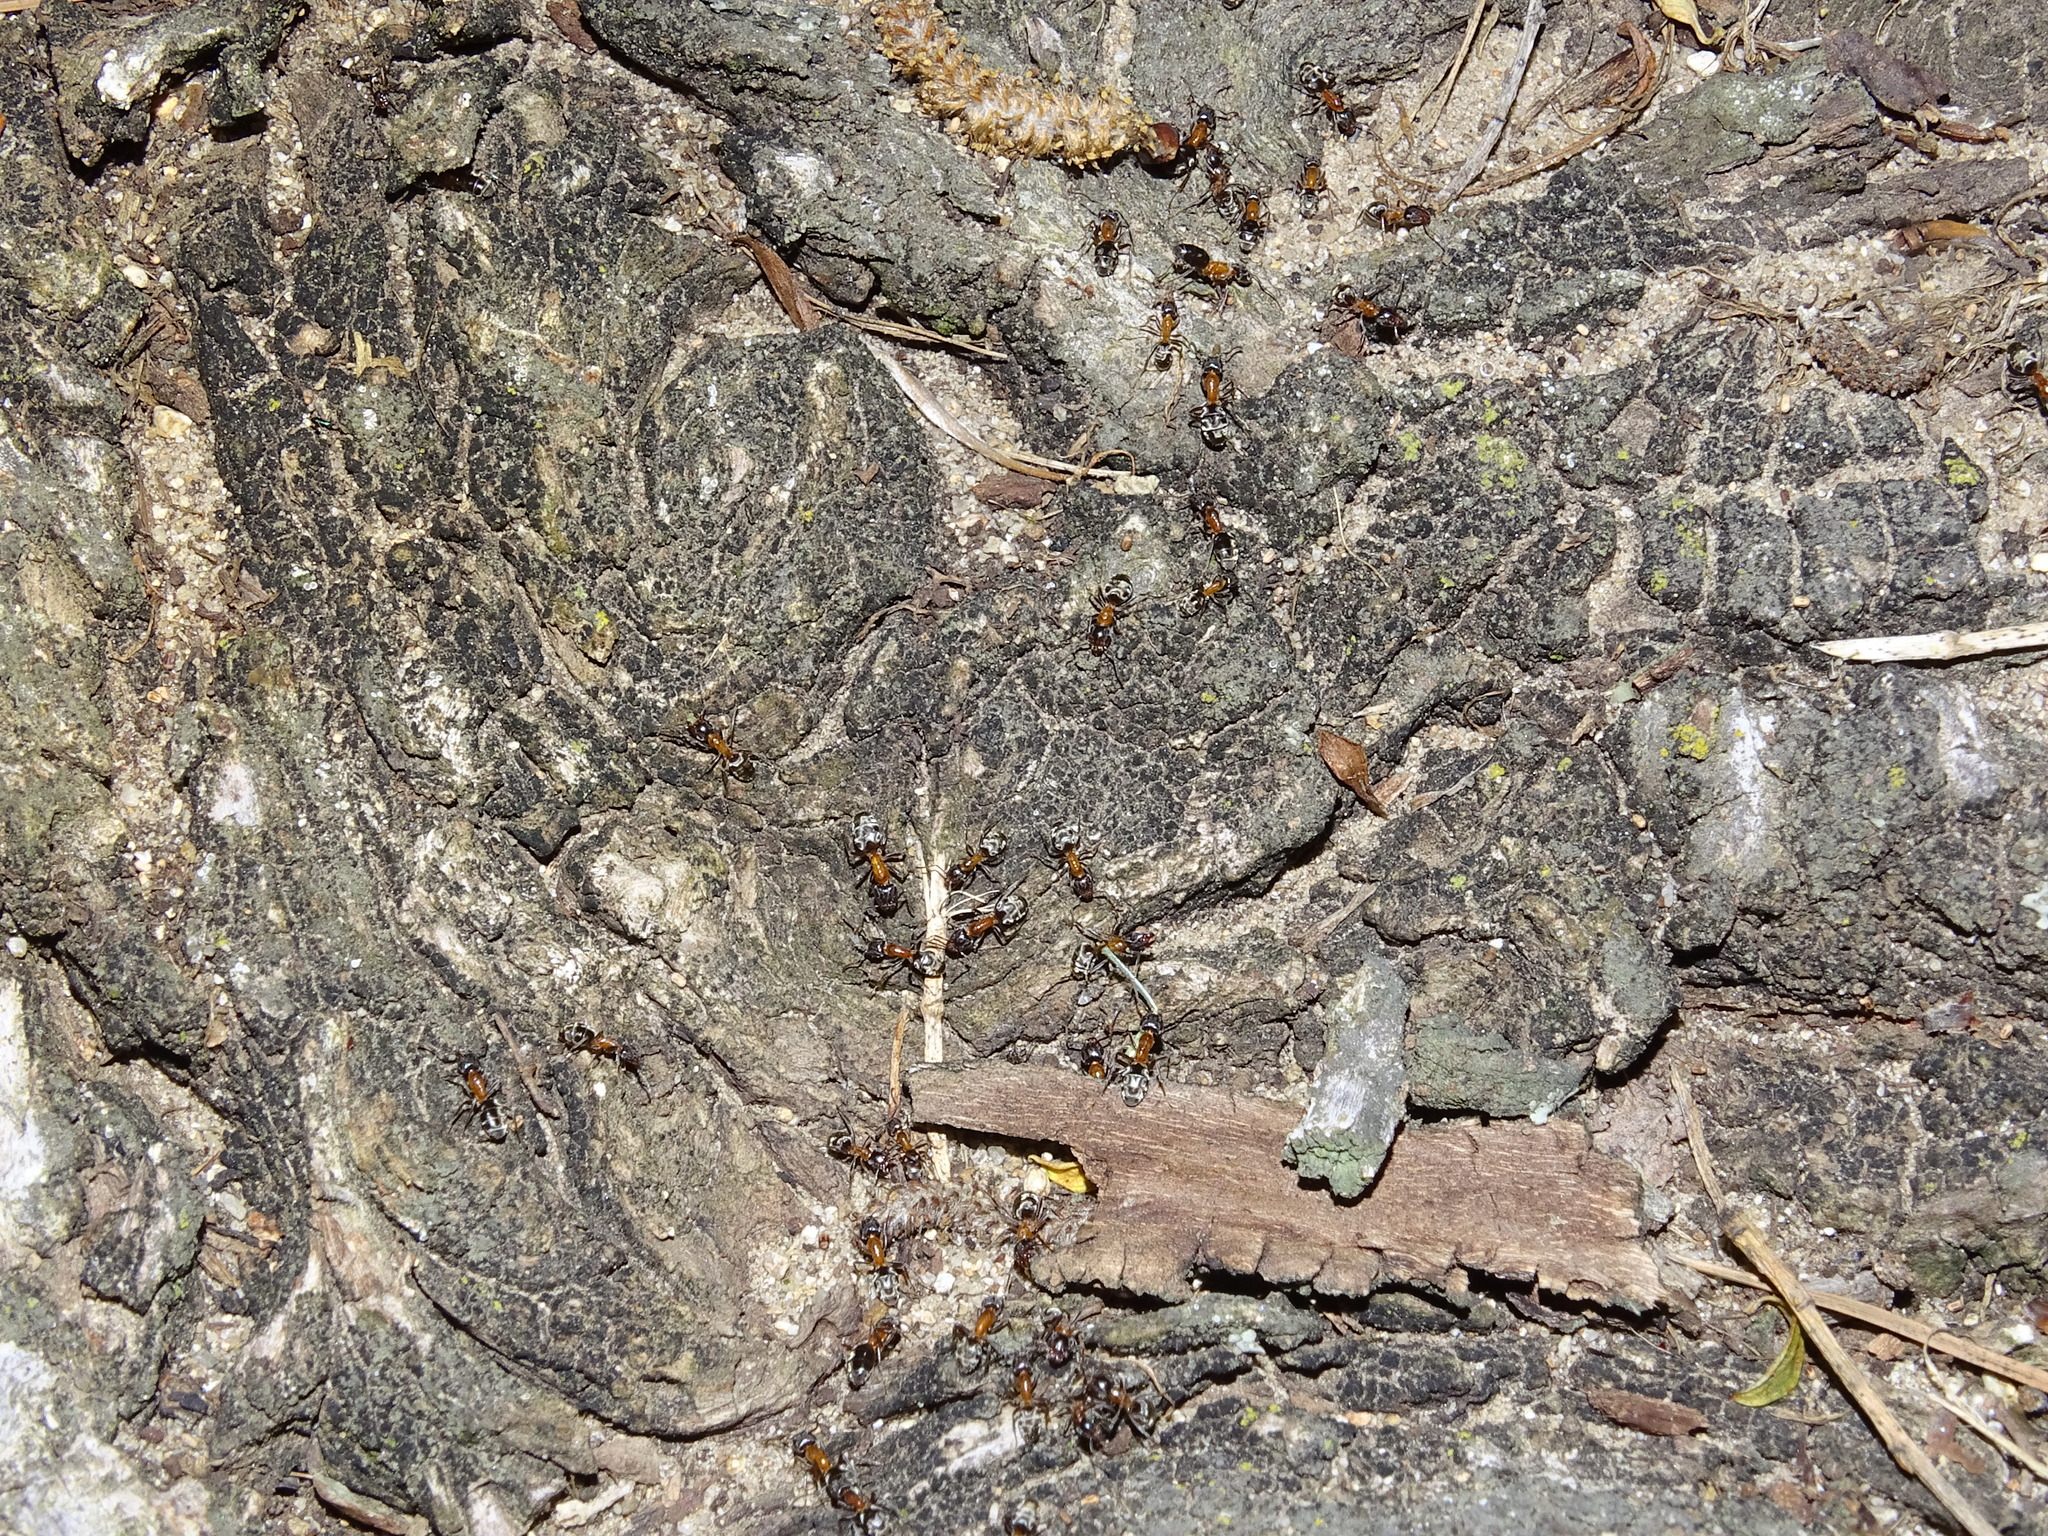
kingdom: Animalia
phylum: Arthropoda
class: Insecta
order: Hymenoptera
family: Formicidae
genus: Liometopum
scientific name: Liometopum occidentale
